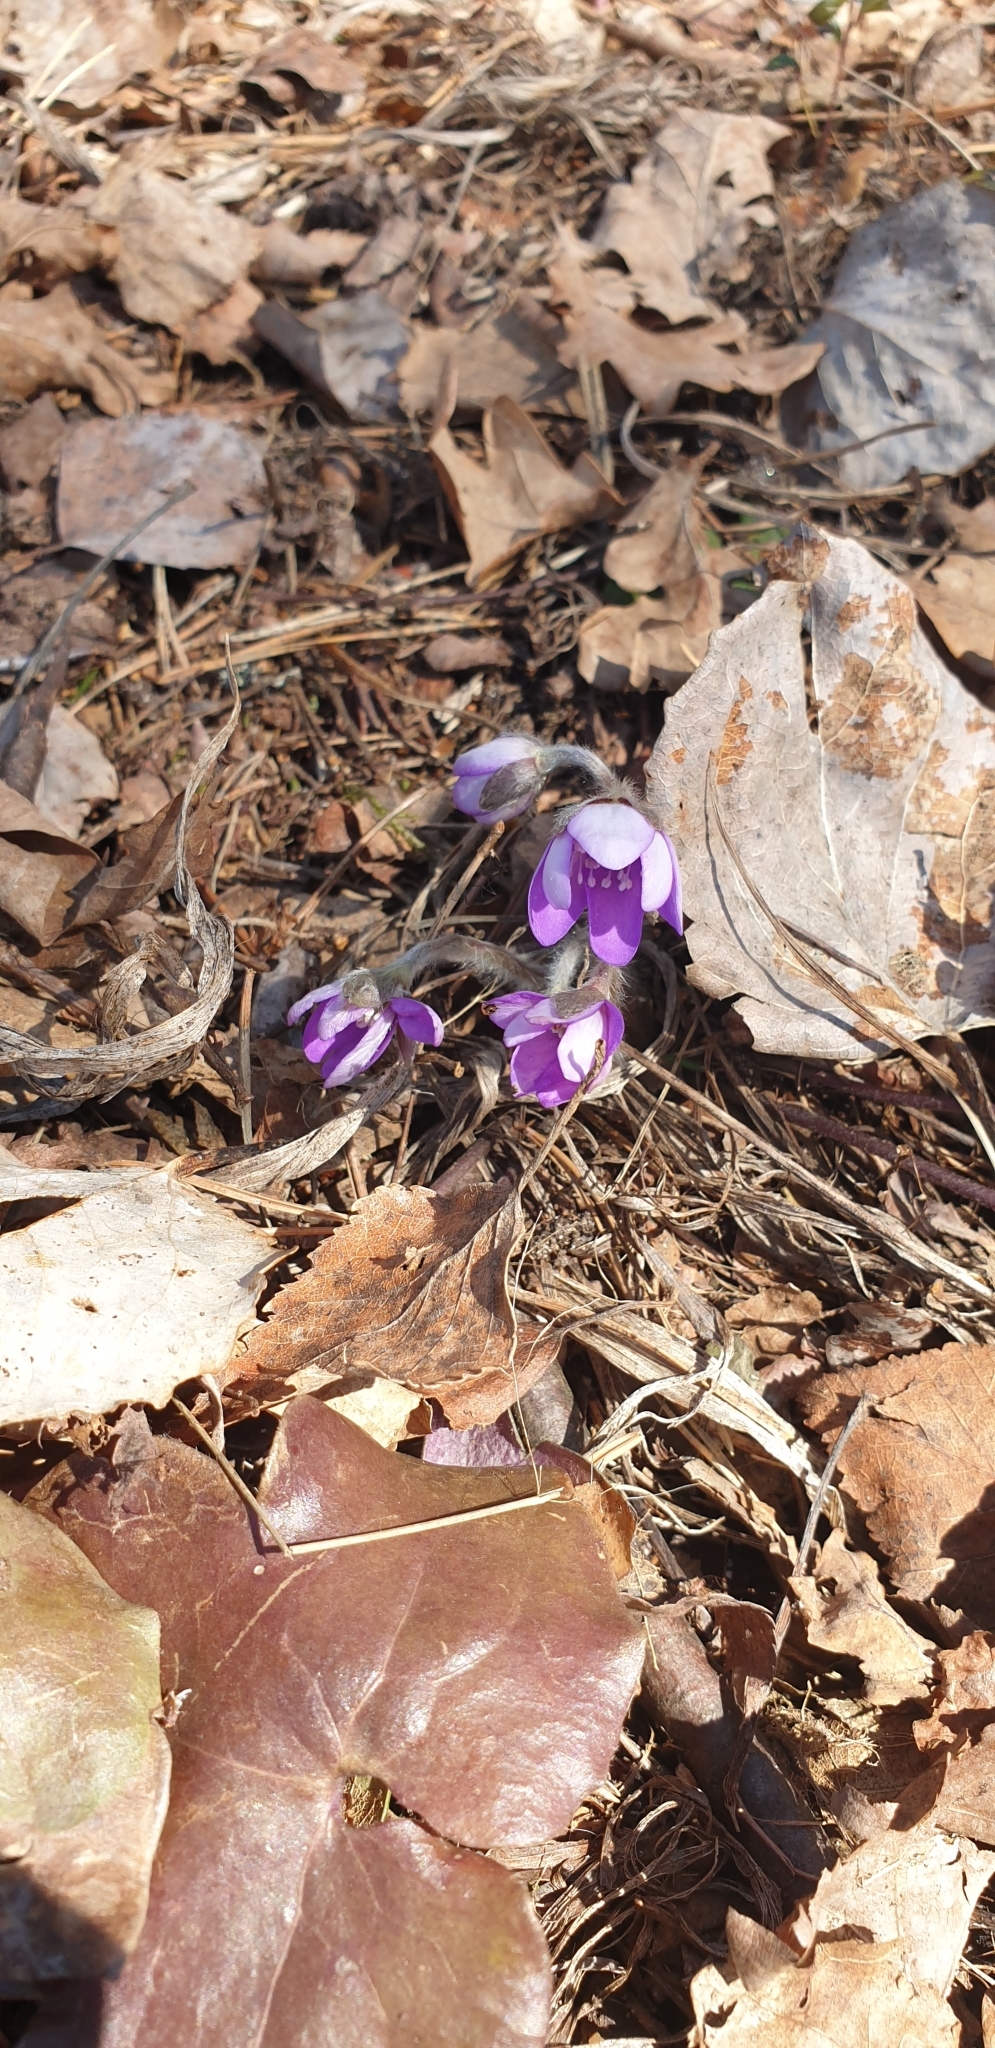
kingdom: Plantae
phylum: Tracheophyta
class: Magnoliopsida
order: Ranunculales
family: Ranunculaceae
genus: Hepatica
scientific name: Hepatica nobilis
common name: Liverleaf
